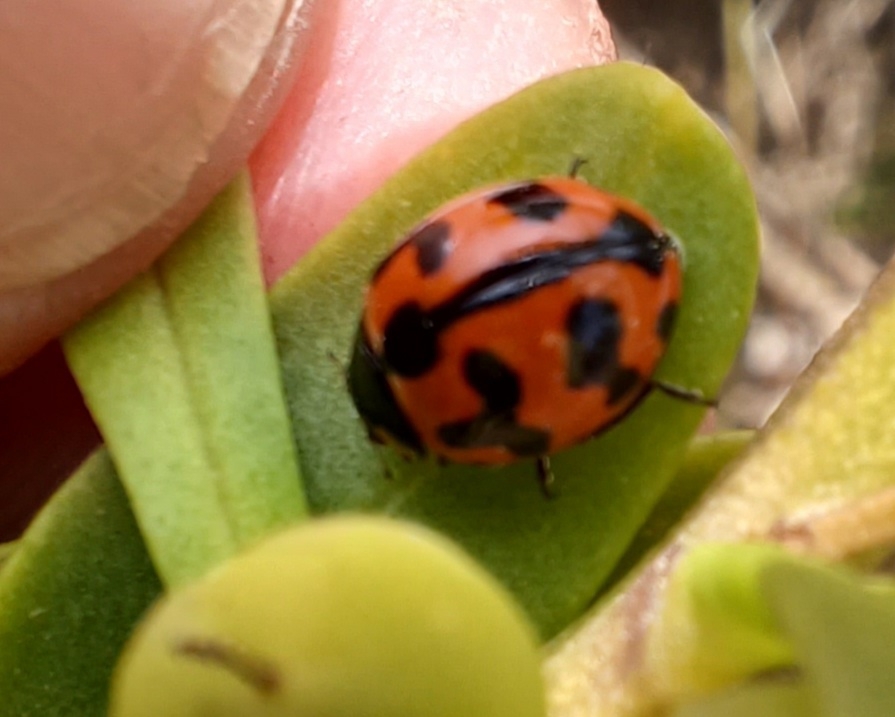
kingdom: Animalia
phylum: Arthropoda
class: Insecta
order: Coleoptera
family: Coccinellidae
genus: Coccinella
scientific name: Coccinella transversalis
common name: Transverse lady beetle
